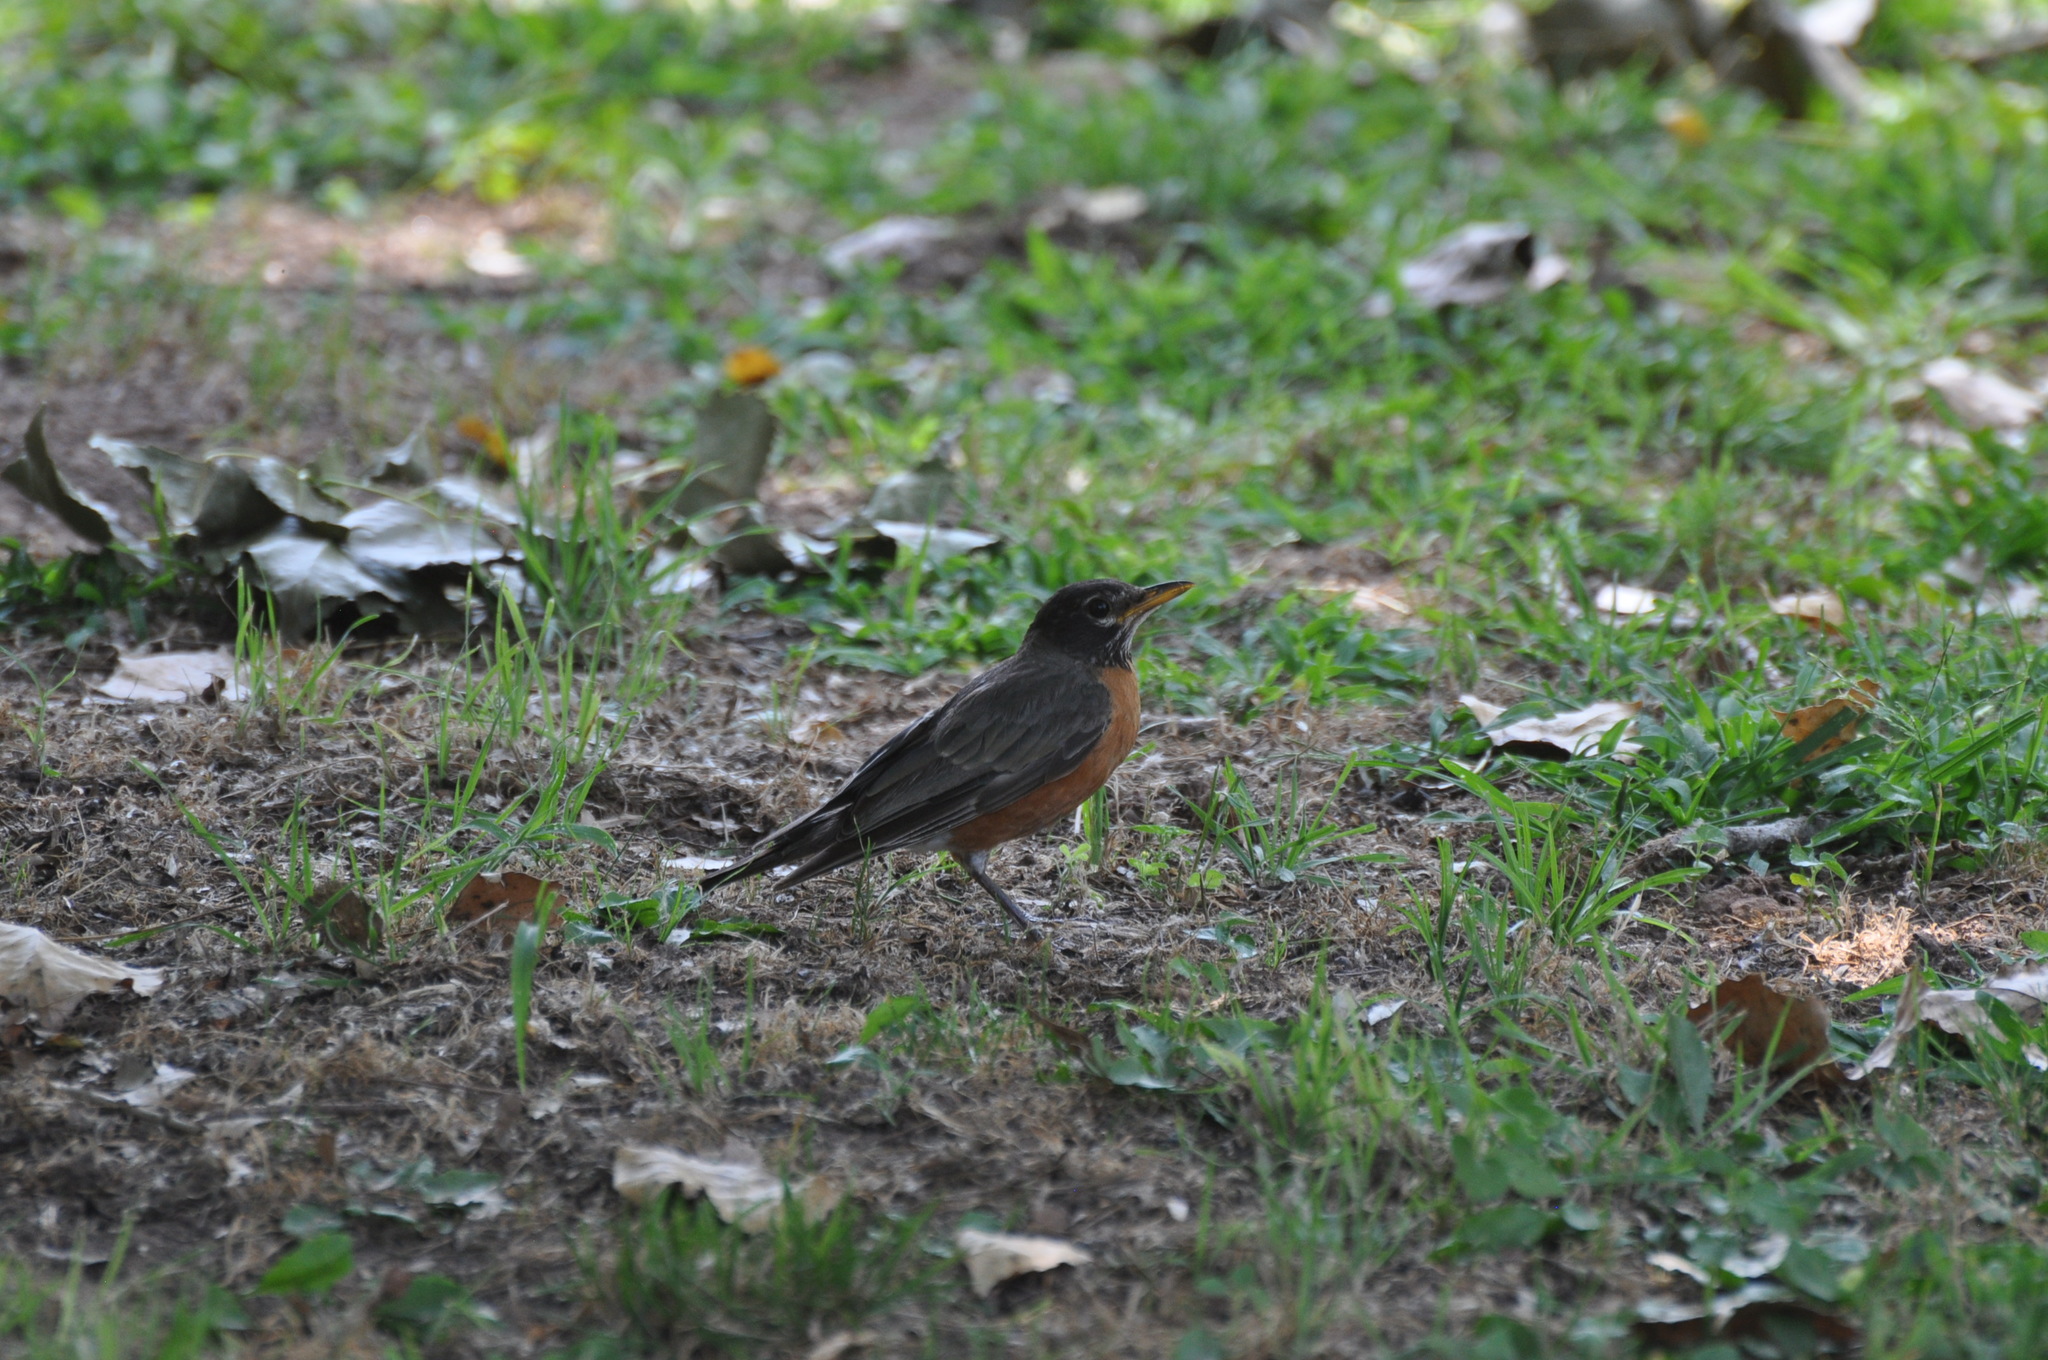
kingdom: Animalia
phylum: Chordata
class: Aves
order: Passeriformes
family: Turdidae
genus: Turdus
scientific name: Turdus migratorius
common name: American robin
